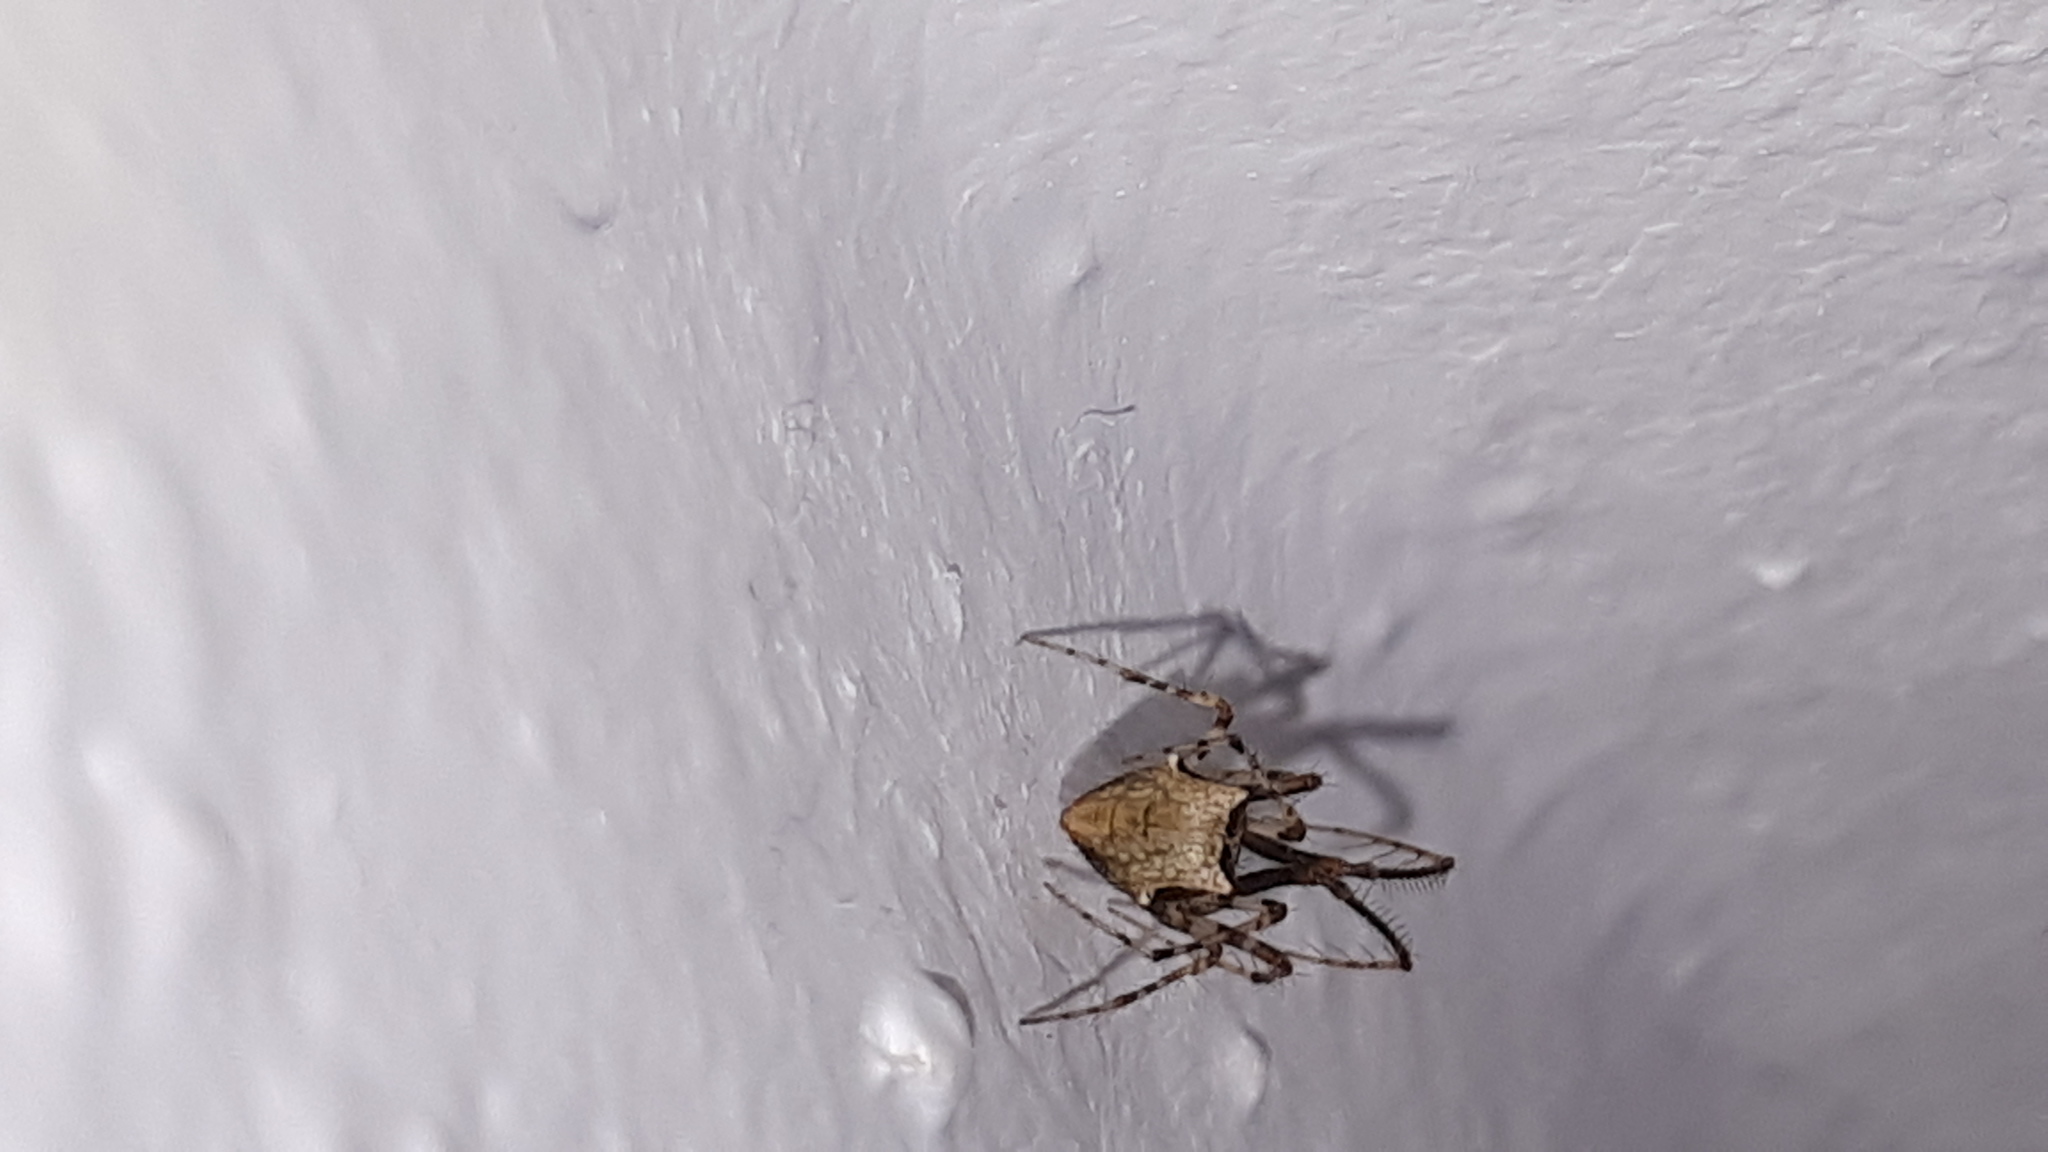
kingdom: Animalia
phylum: Arthropoda
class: Arachnida
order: Araneae
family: Mimetidae
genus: Ero
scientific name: Ero tuberculata
